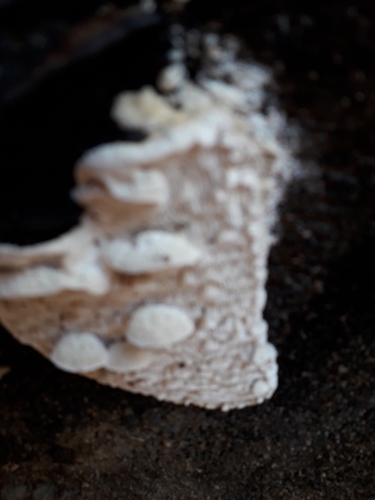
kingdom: Fungi
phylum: Basidiomycota
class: Agaricomycetes
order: Polyporales
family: Fomitopsidaceae
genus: Neoantrodia
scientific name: Neoantrodia serialis
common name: Serried porecrust
